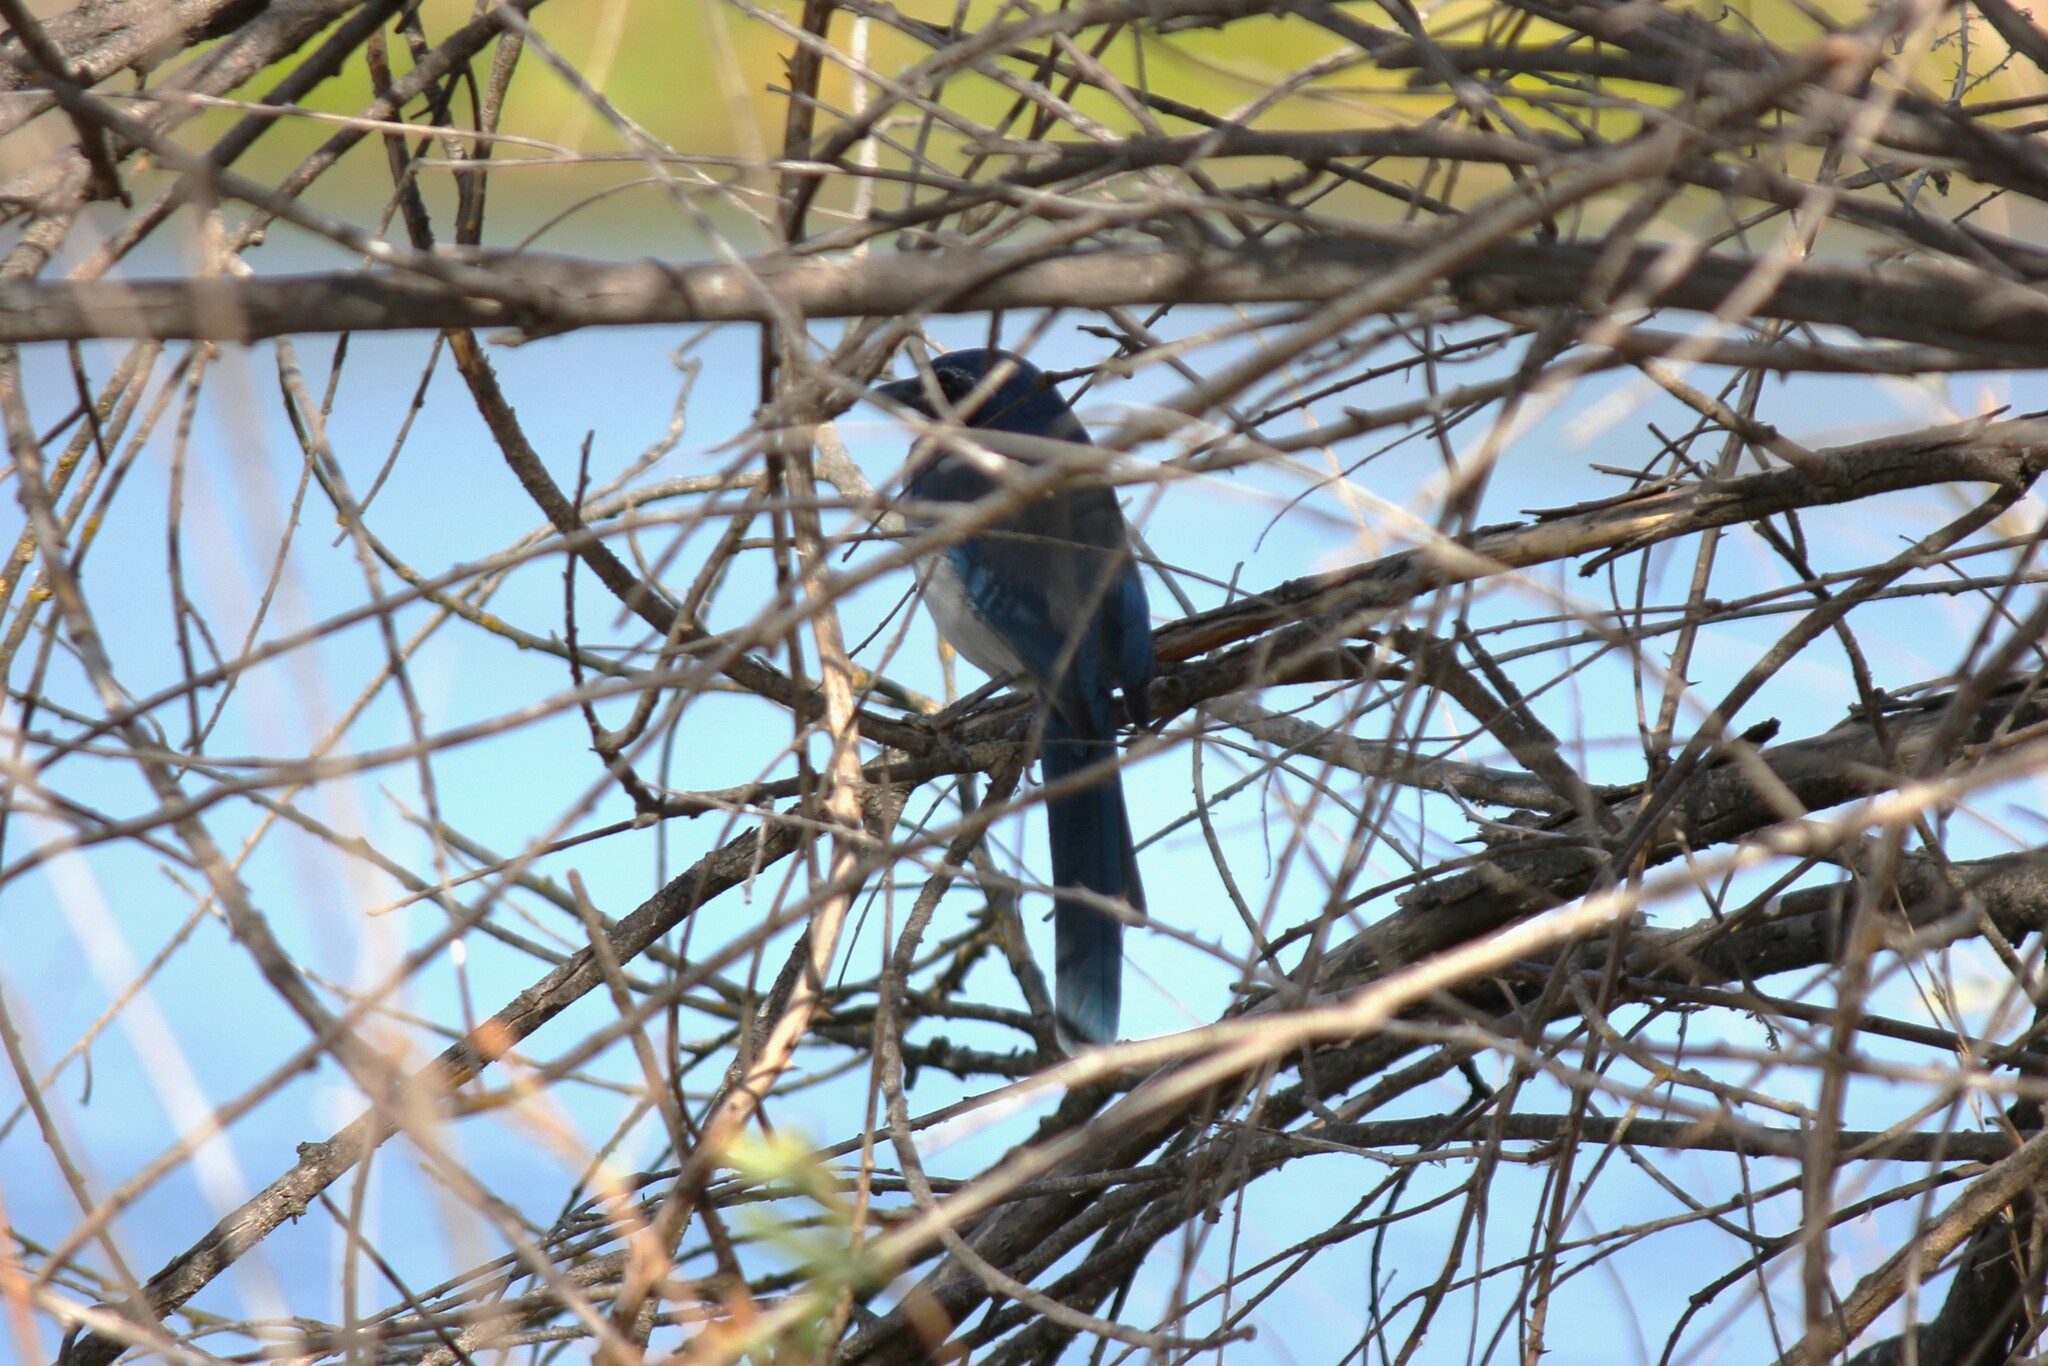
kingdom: Animalia
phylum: Chordata
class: Aves
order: Passeriformes
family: Corvidae
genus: Aphelocoma
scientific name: Aphelocoma californica
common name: California scrub-jay
